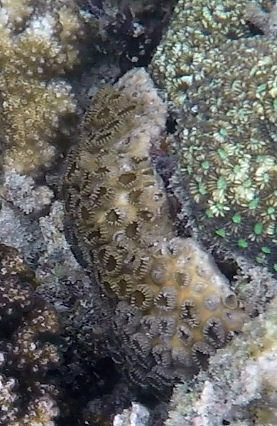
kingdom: Animalia
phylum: Cnidaria
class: Anthozoa
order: Zoantharia
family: Sphenopidae
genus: Palythoa
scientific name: Palythoa tuberculosa
